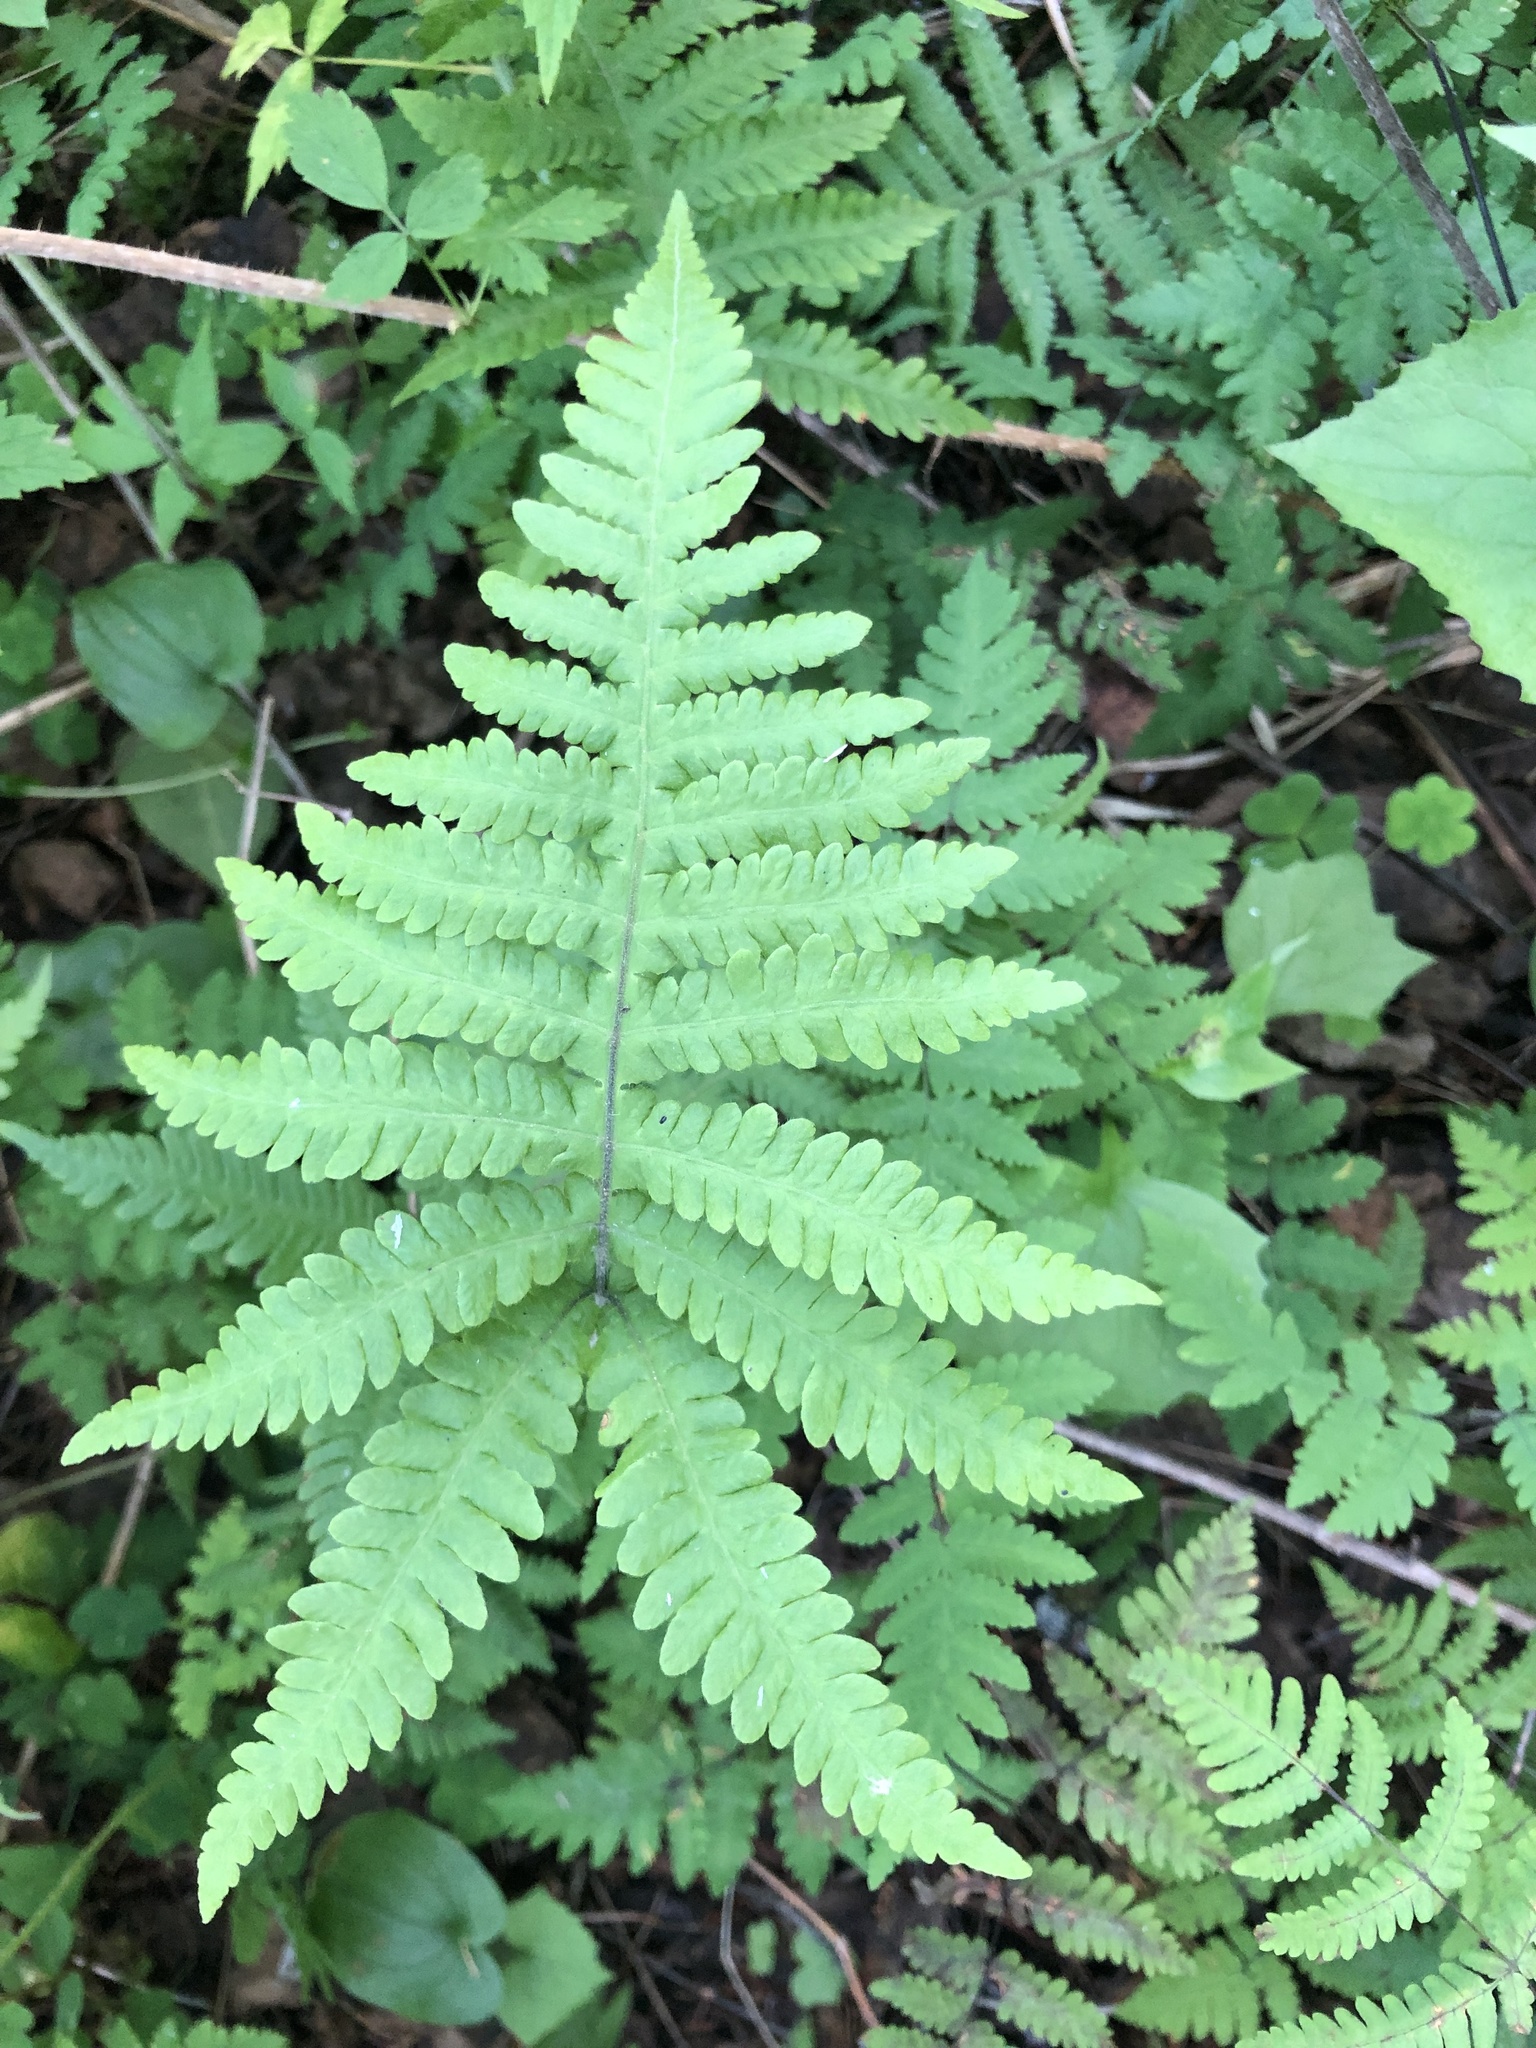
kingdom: Plantae
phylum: Tracheophyta
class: Polypodiopsida
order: Polypodiales
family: Thelypteridaceae
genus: Phegopteris
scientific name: Phegopteris connectilis
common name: Beech fern
